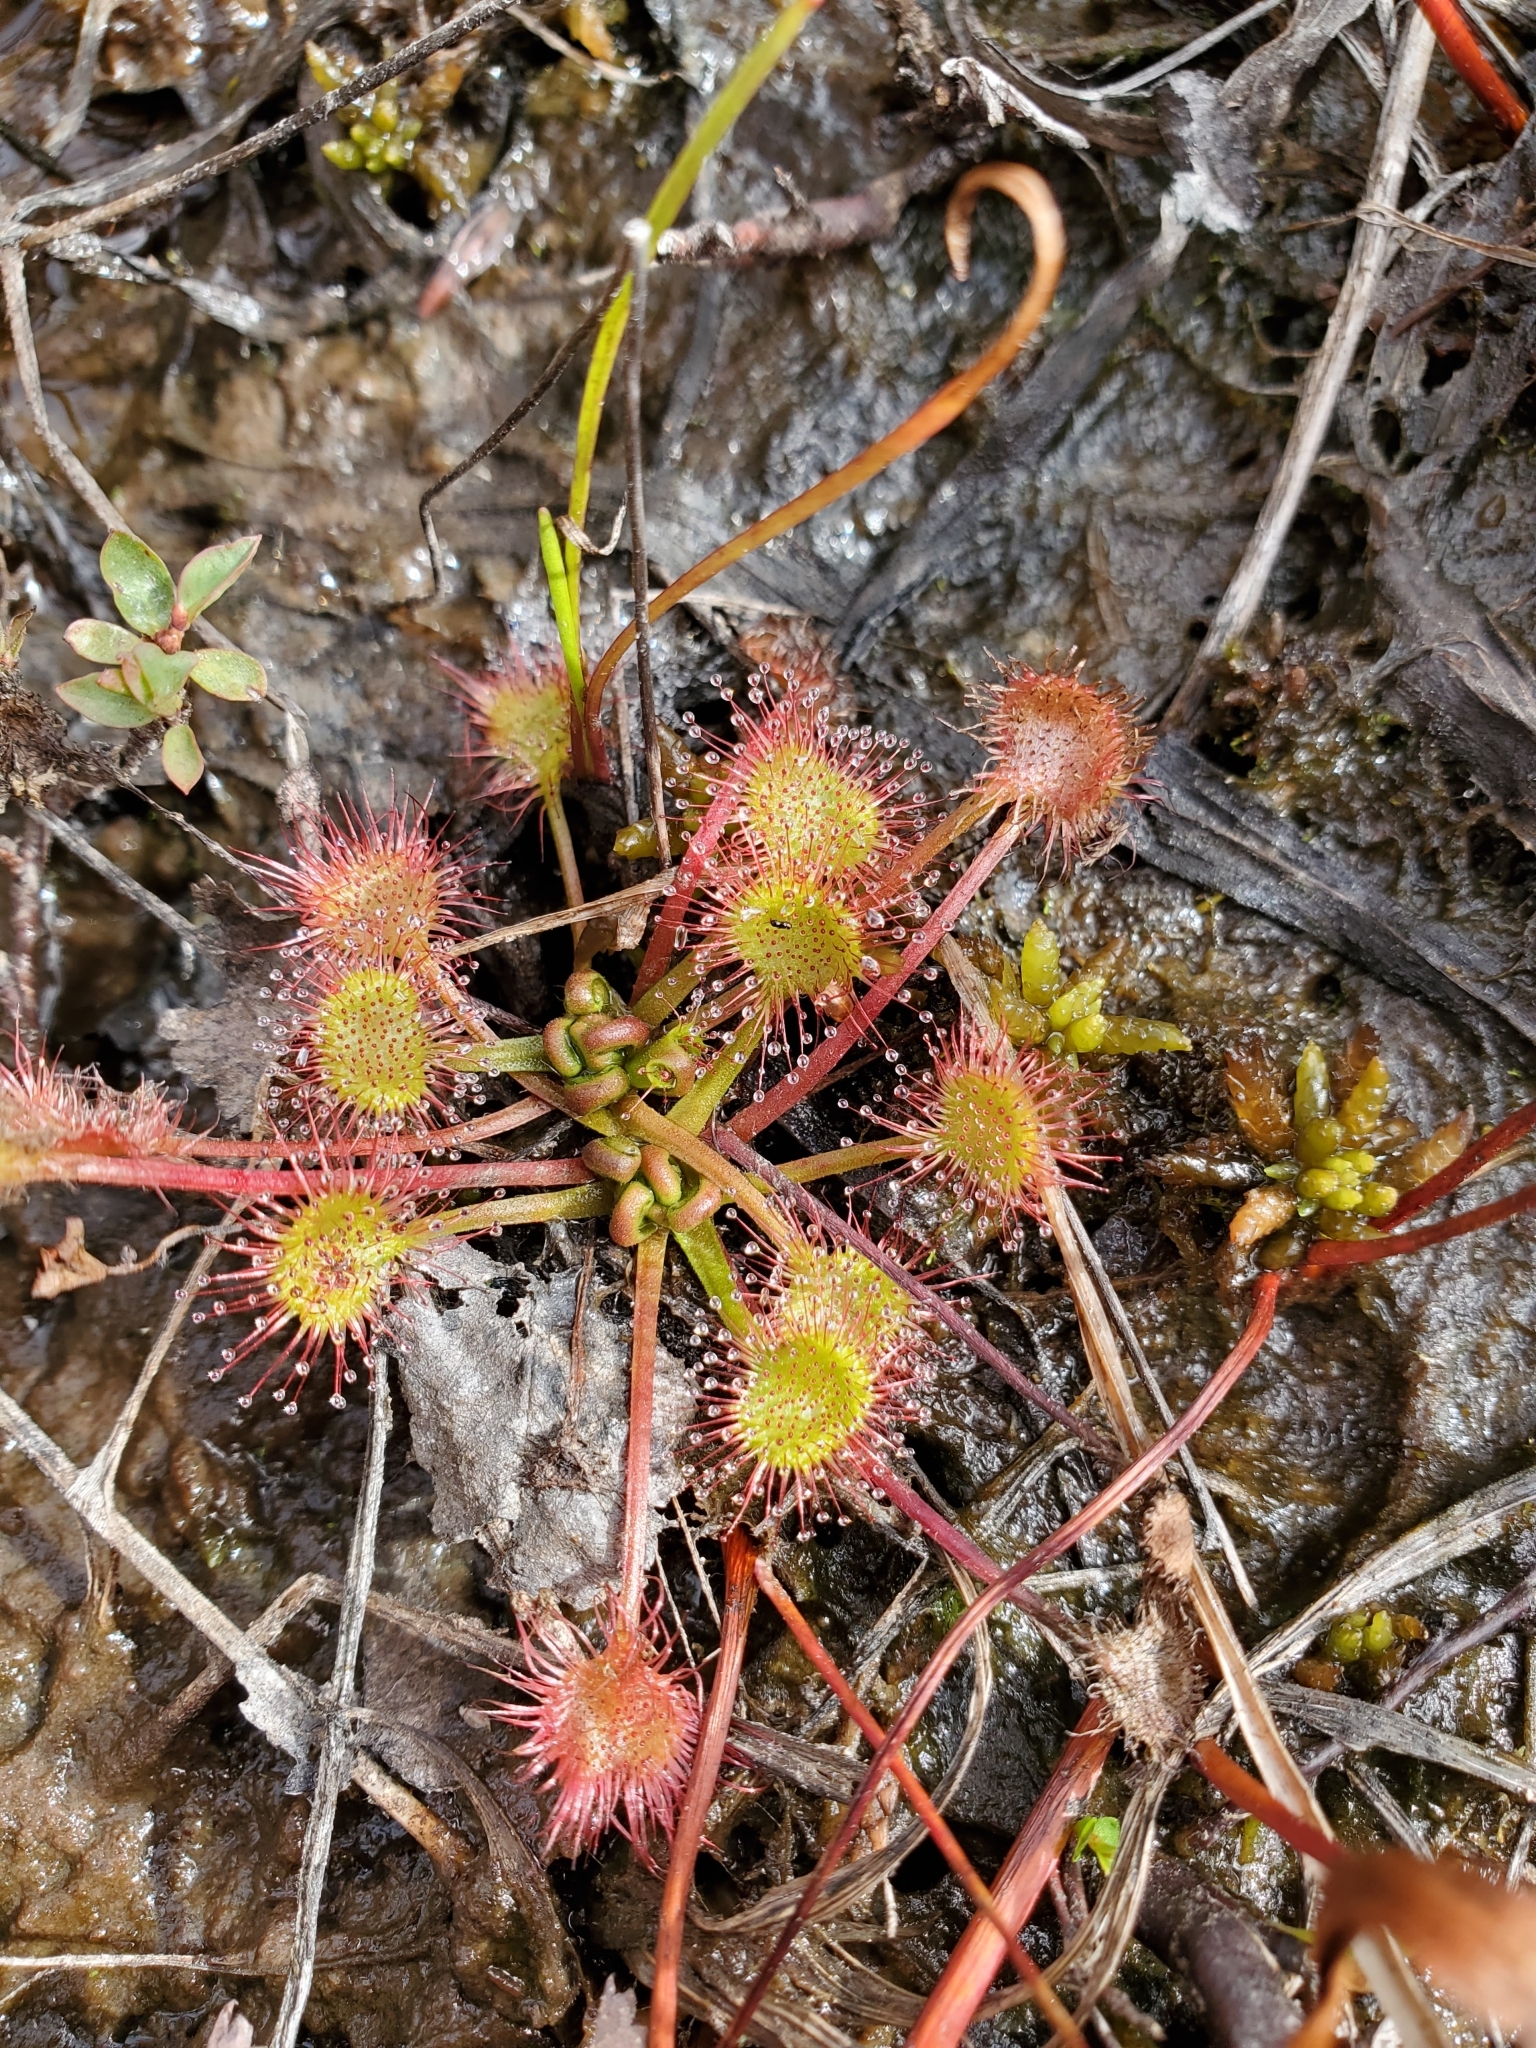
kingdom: Plantae
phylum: Tracheophyta
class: Magnoliopsida
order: Caryophyllales
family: Droseraceae
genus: Drosera
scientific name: Drosera rotundifolia
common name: Round-leaved sundew
